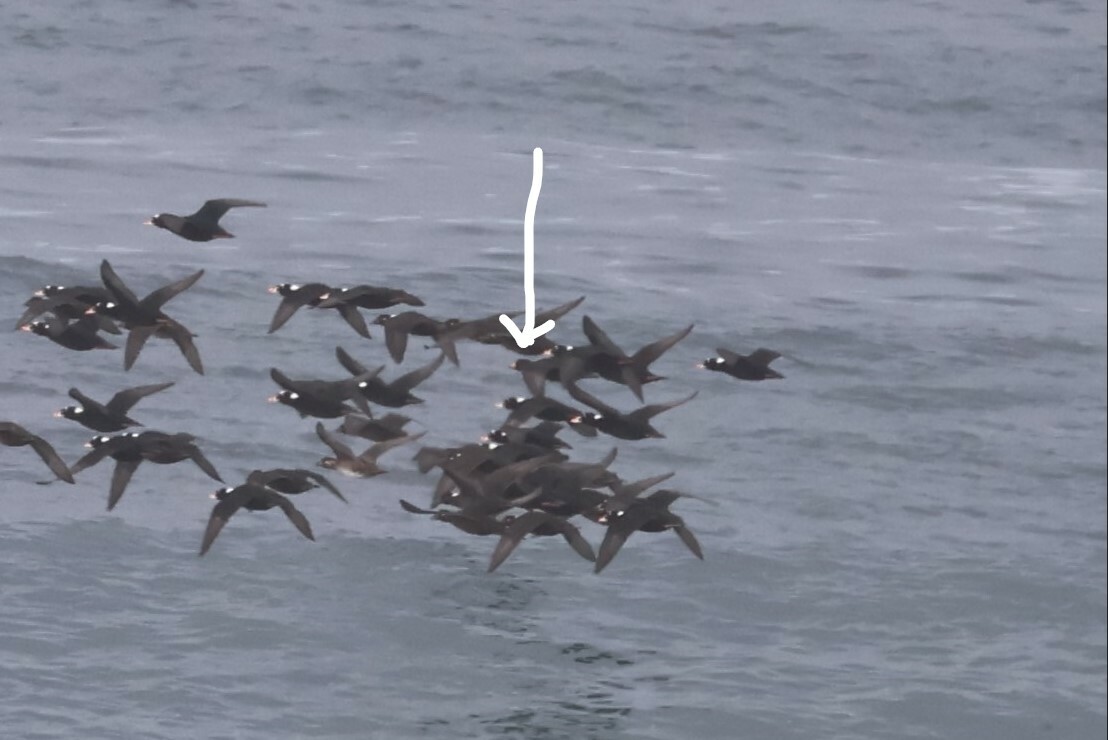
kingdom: Animalia
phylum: Chordata
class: Aves
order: Anseriformes
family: Anatidae
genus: Melanitta
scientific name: Melanitta americana
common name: Black scoter
